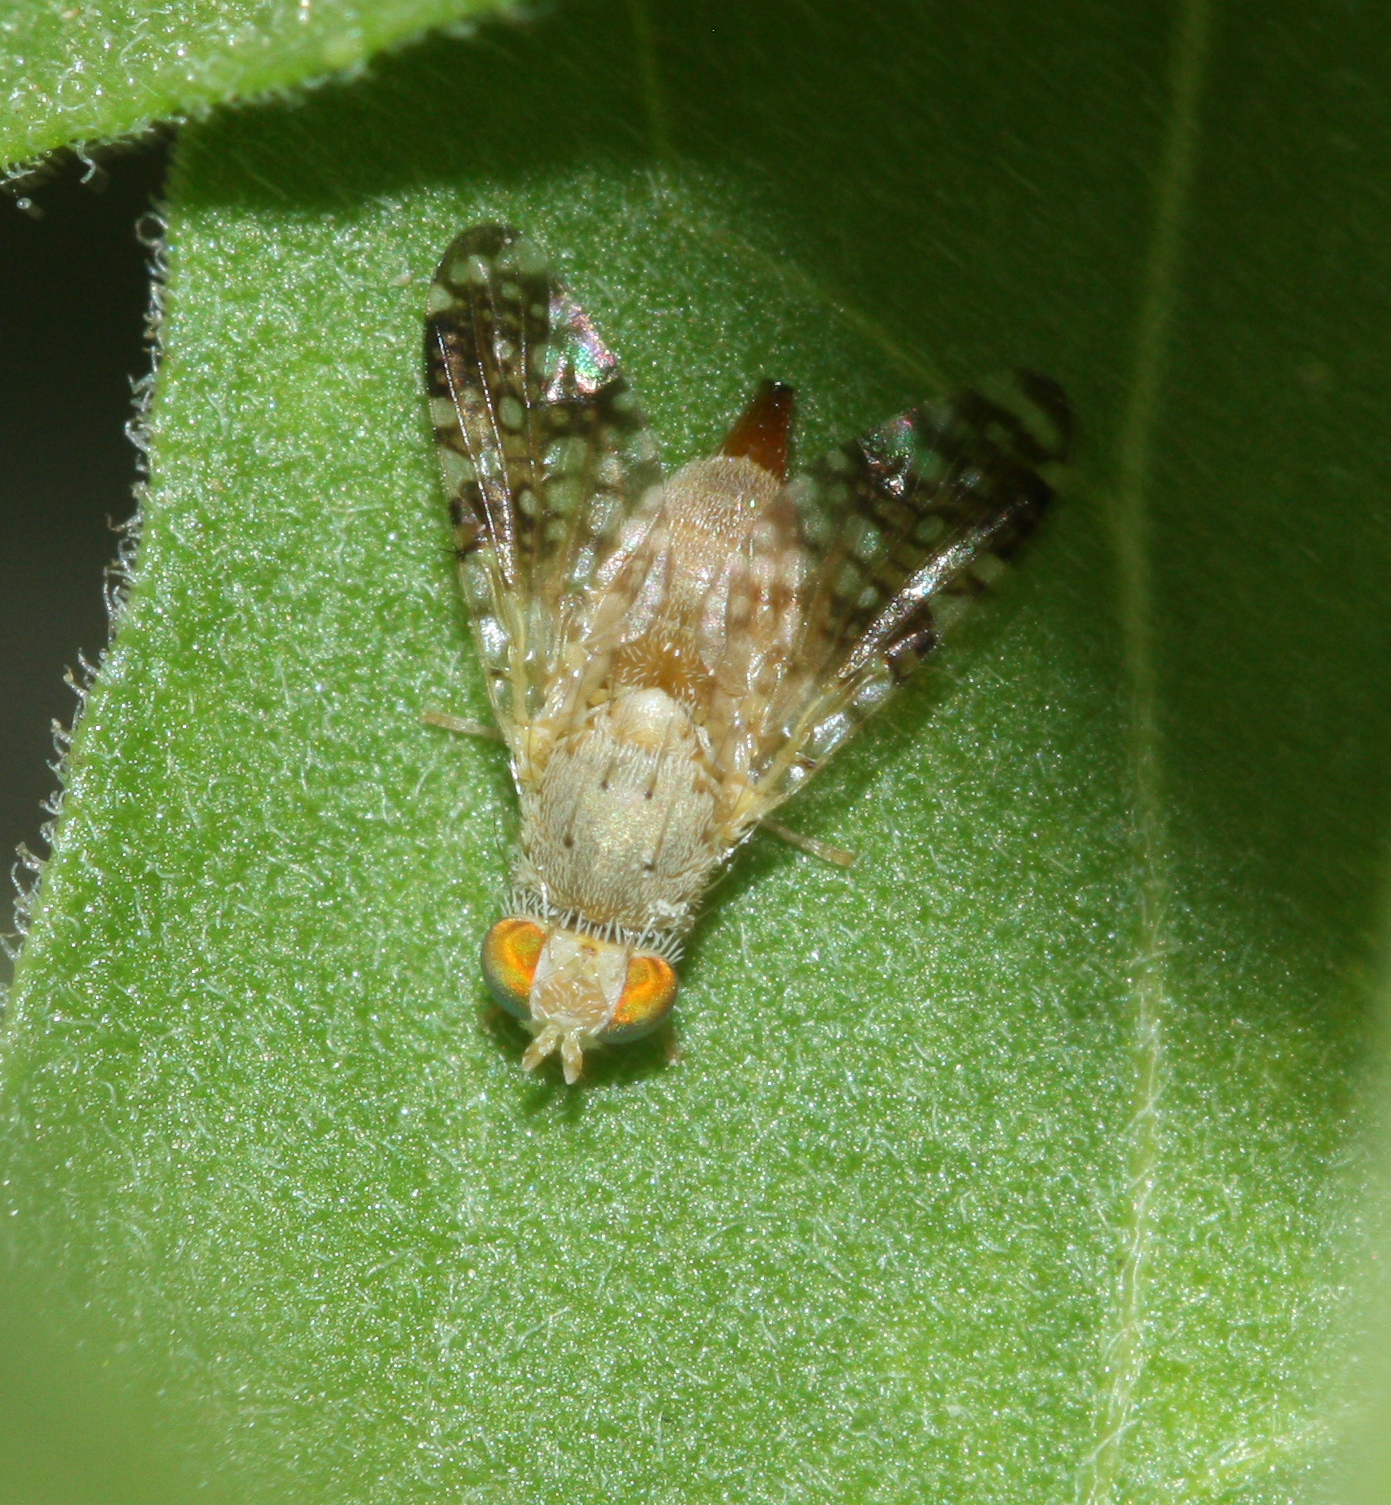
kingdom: Animalia
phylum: Arthropoda
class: Insecta
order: Diptera
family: Tephritidae
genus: Acinia
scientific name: Acinia picturata
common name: Sourbush seed fly
